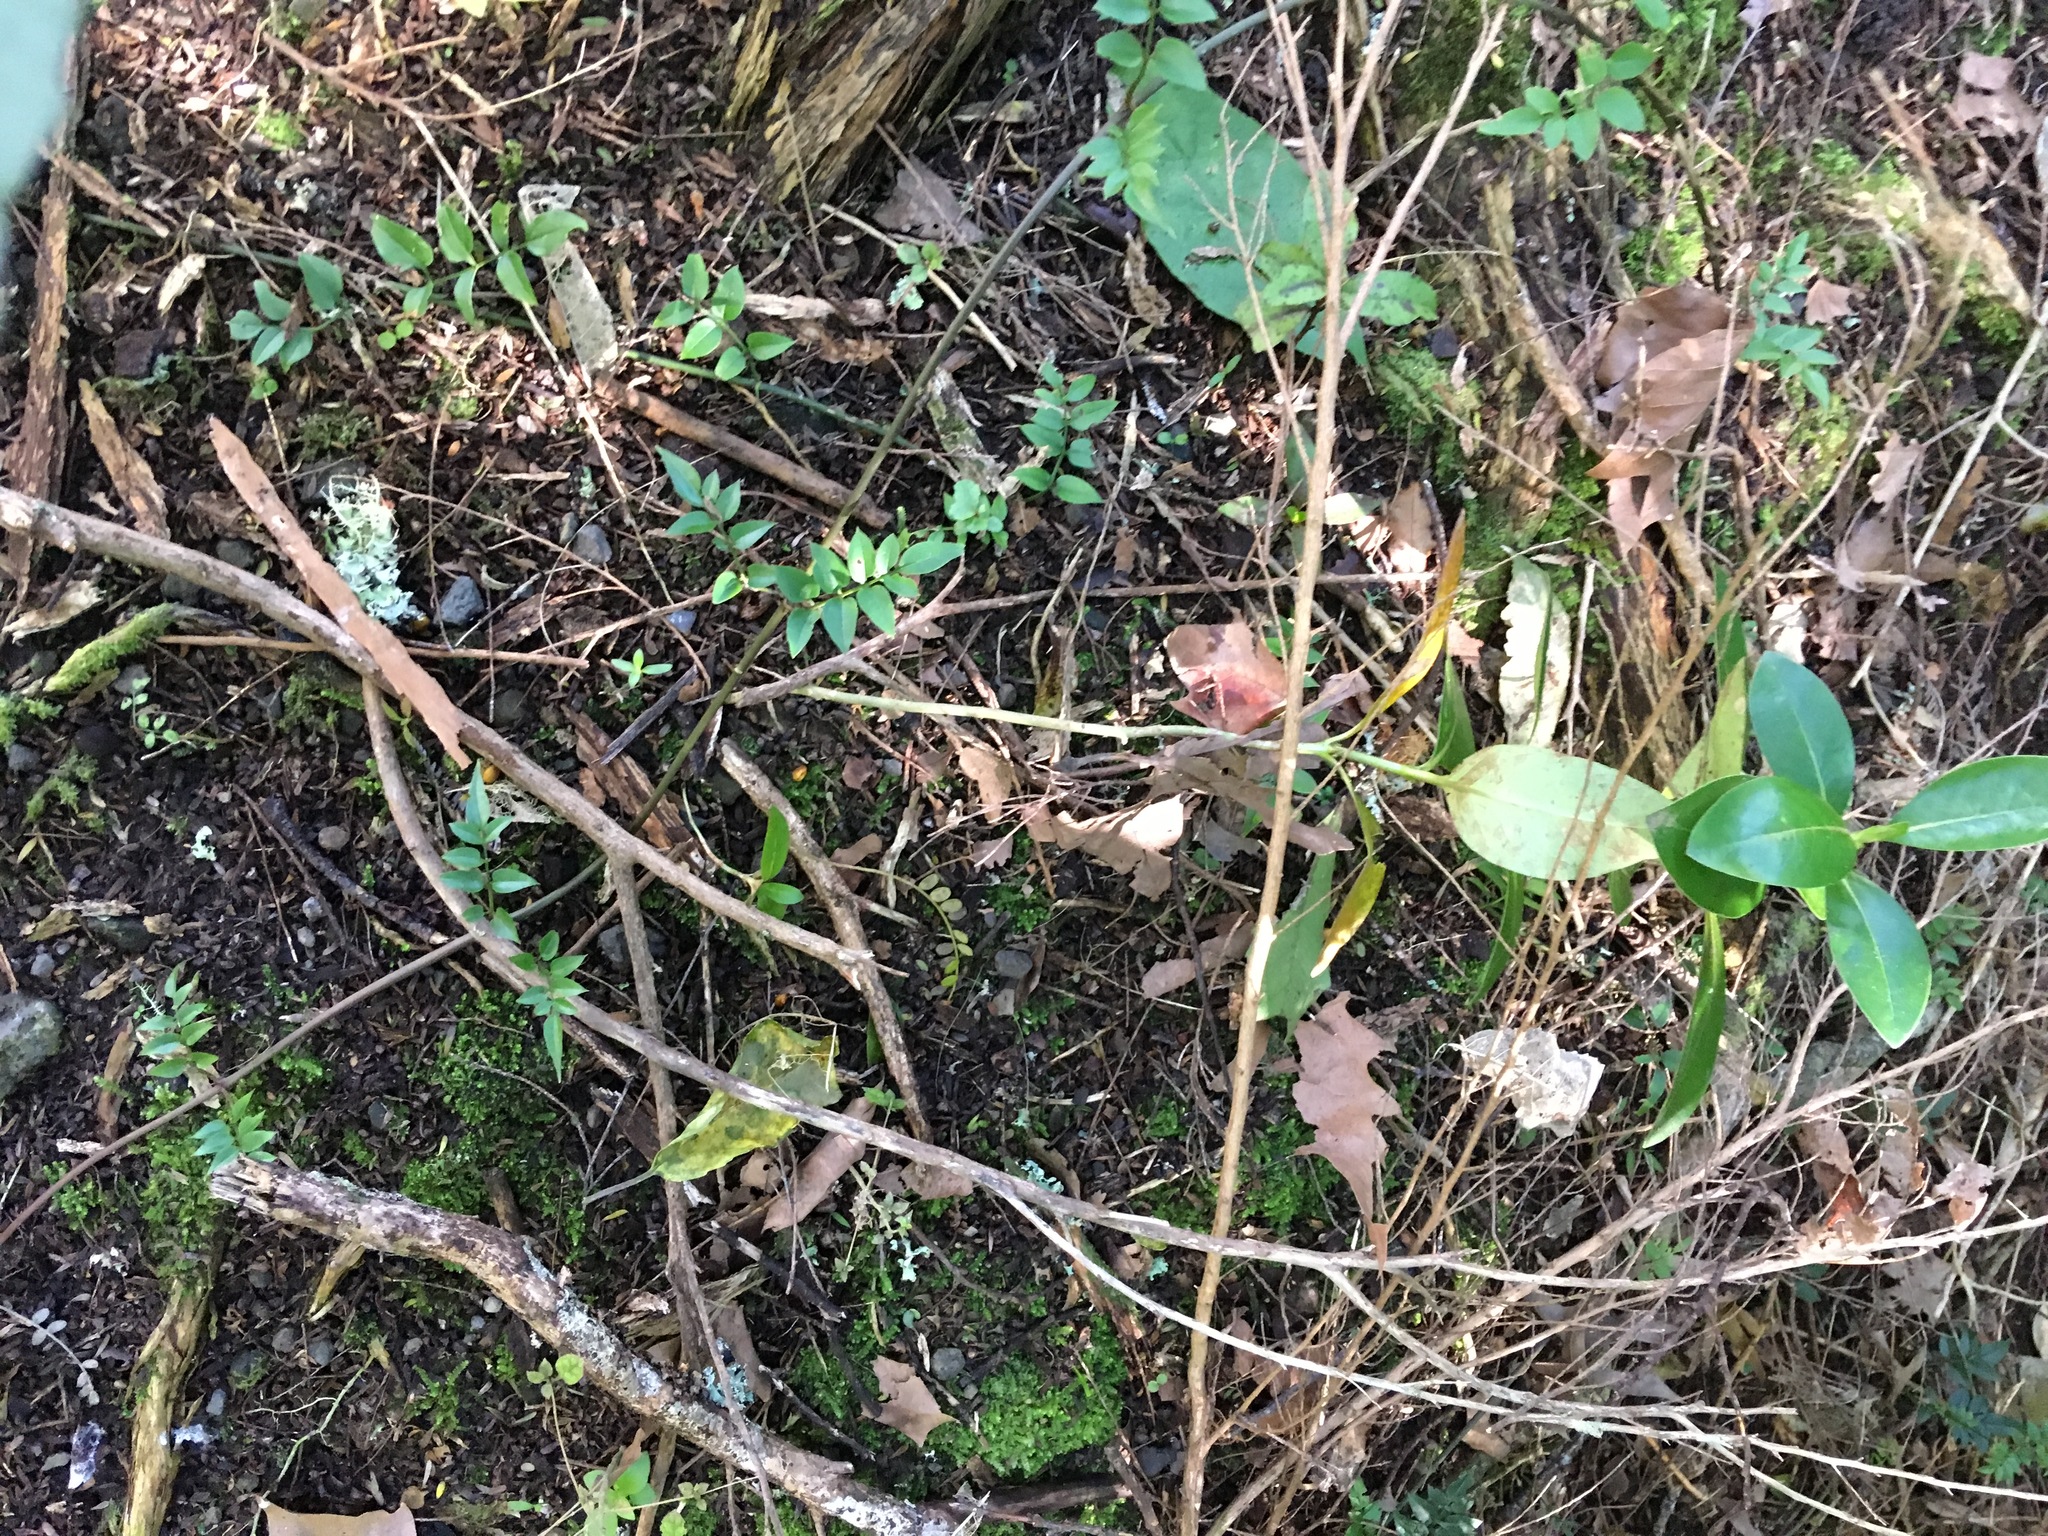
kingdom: Plantae
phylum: Tracheophyta
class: Magnoliopsida
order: Lamiales
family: Oleaceae
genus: Jasminum
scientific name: Jasminum polyanthum
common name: Pink jasmine
